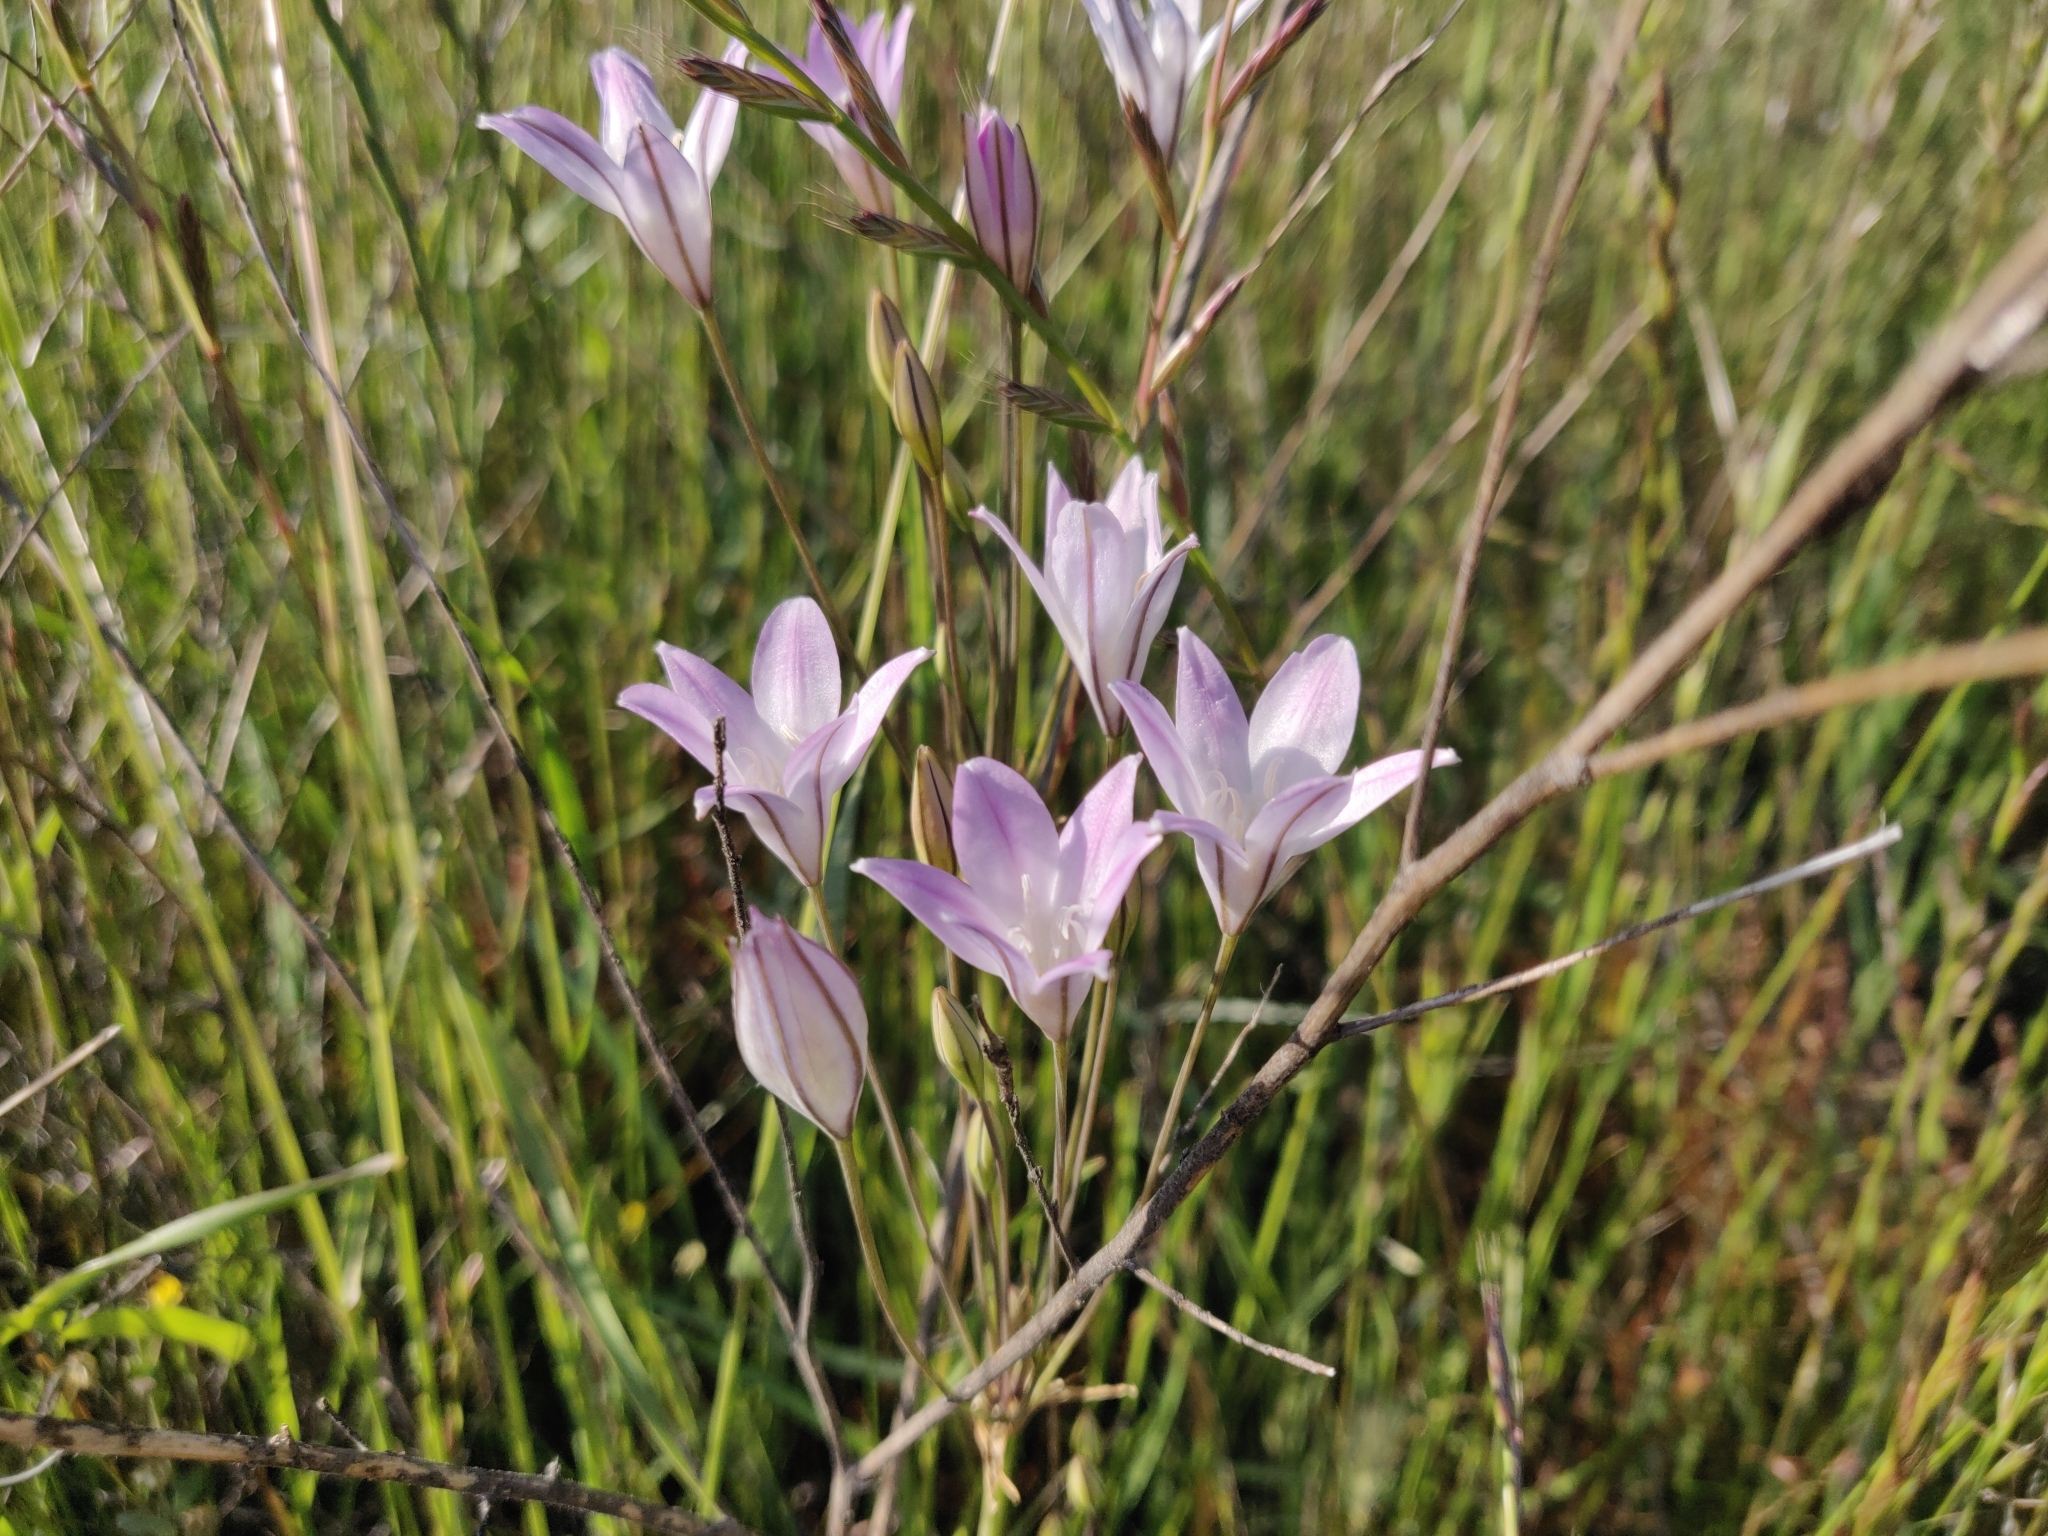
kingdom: Plantae
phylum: Tracheophyta
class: Liliopsida
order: Asparagales
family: Asparagaceae
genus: Triteleia
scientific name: Triteleia peduncularis
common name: Long-ray brodiaea
